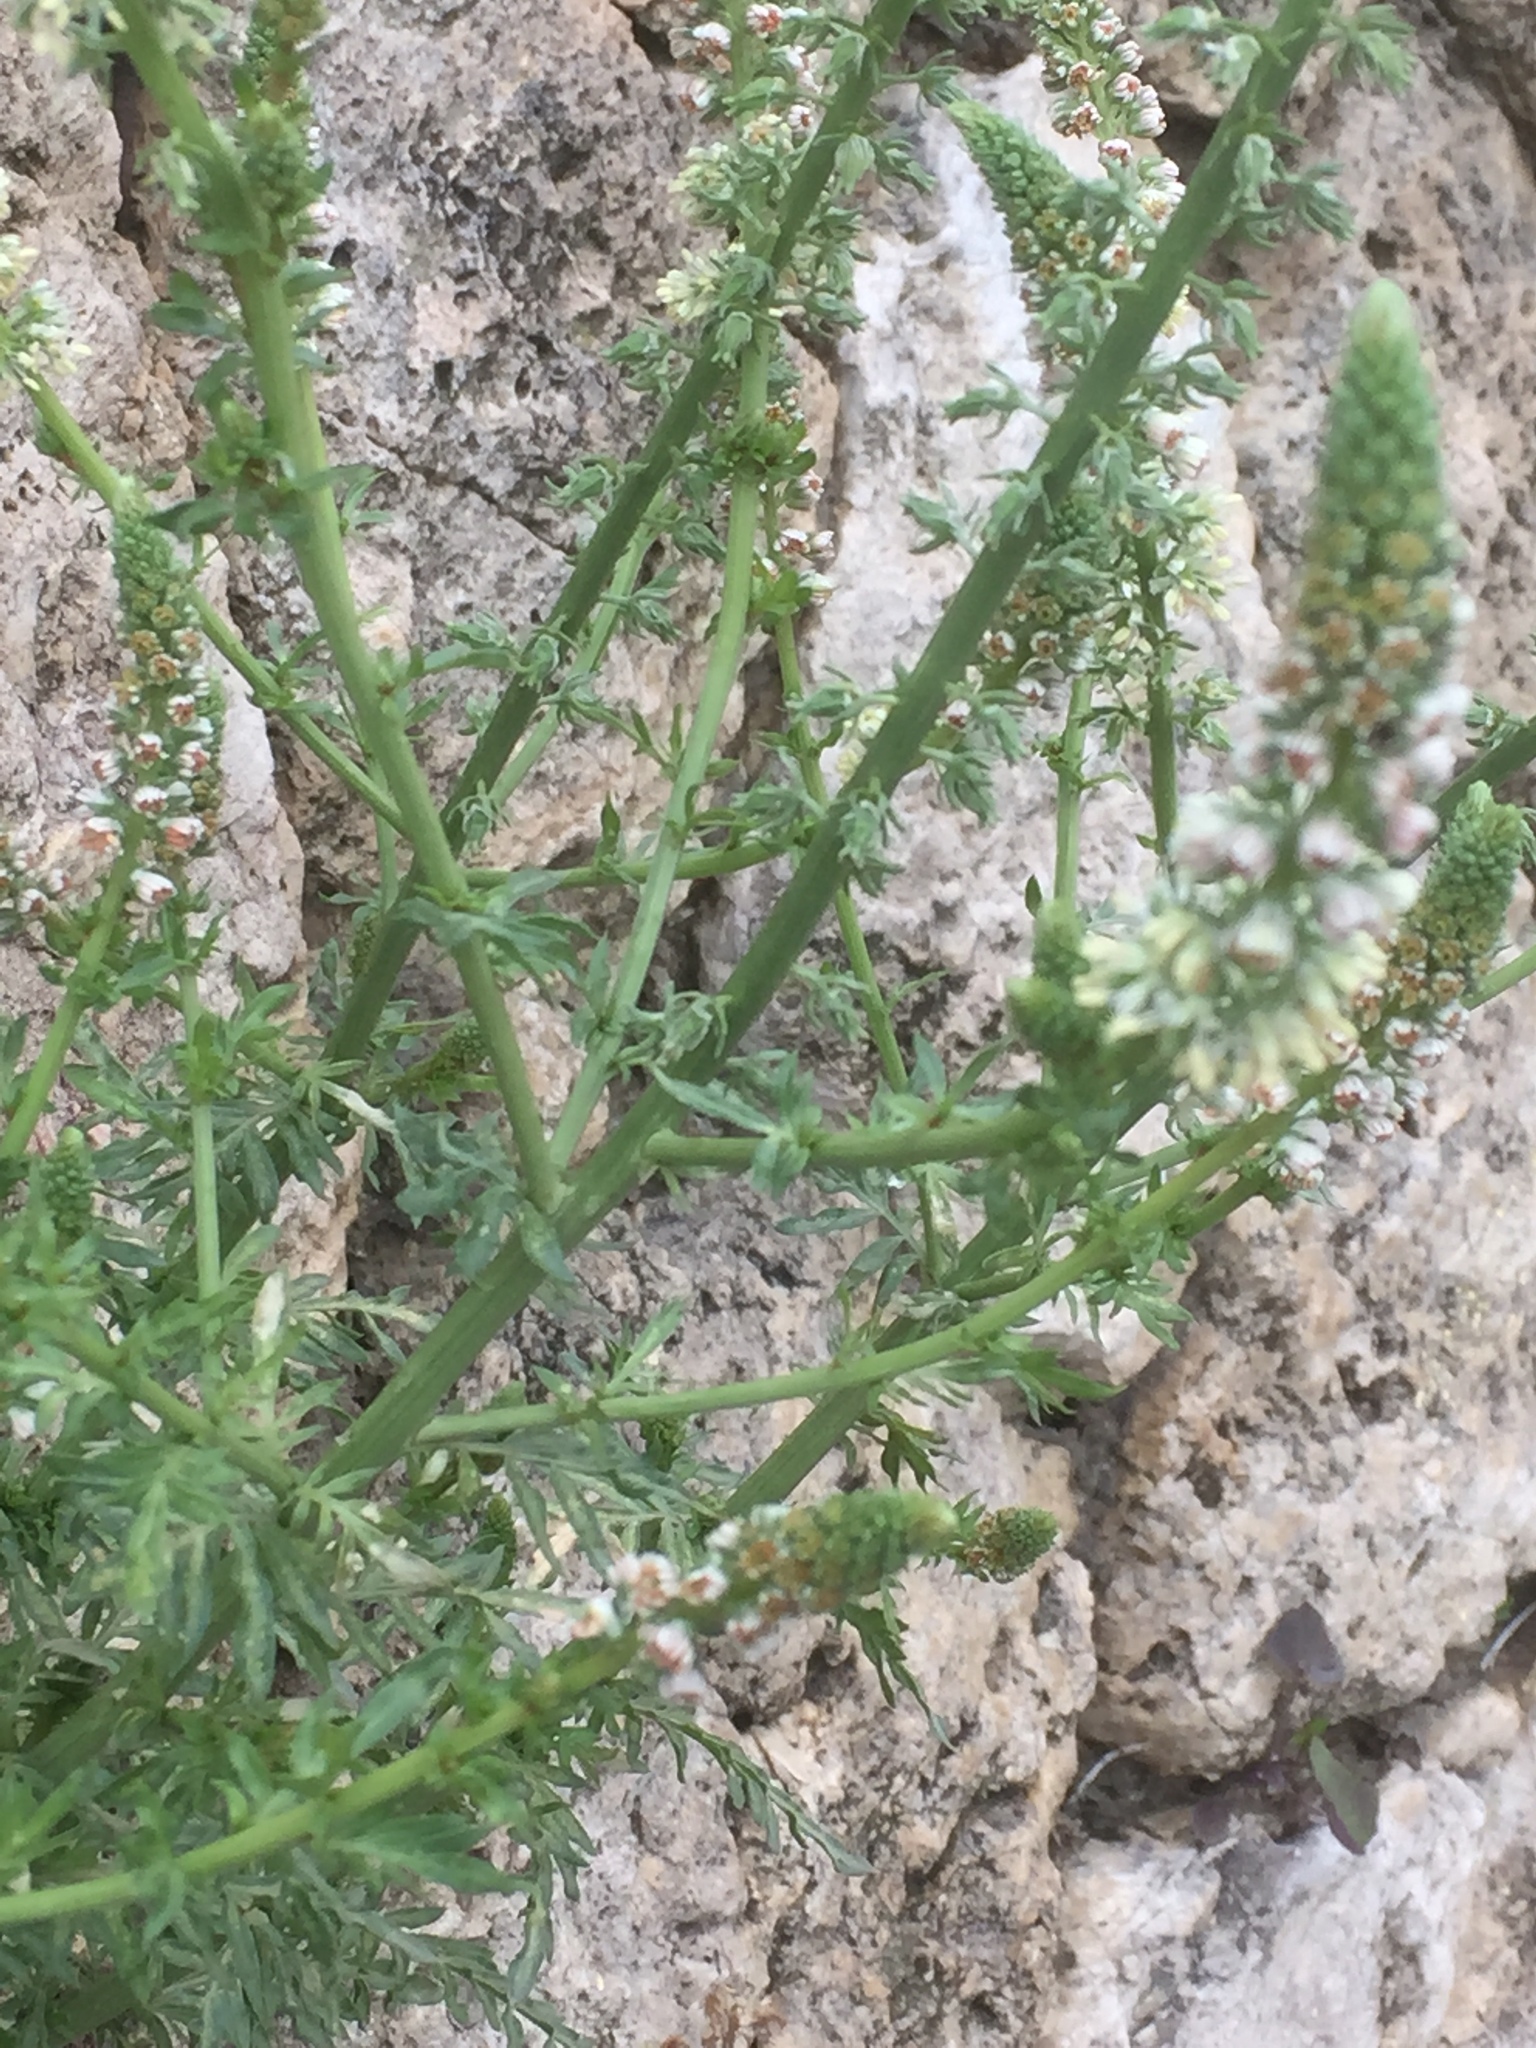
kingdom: Plantae
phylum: Tracheophyta
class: Magnoliopsida
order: Brassicales
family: Resedaceae
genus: Reseda
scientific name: Reseda alba
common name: White mignonette
